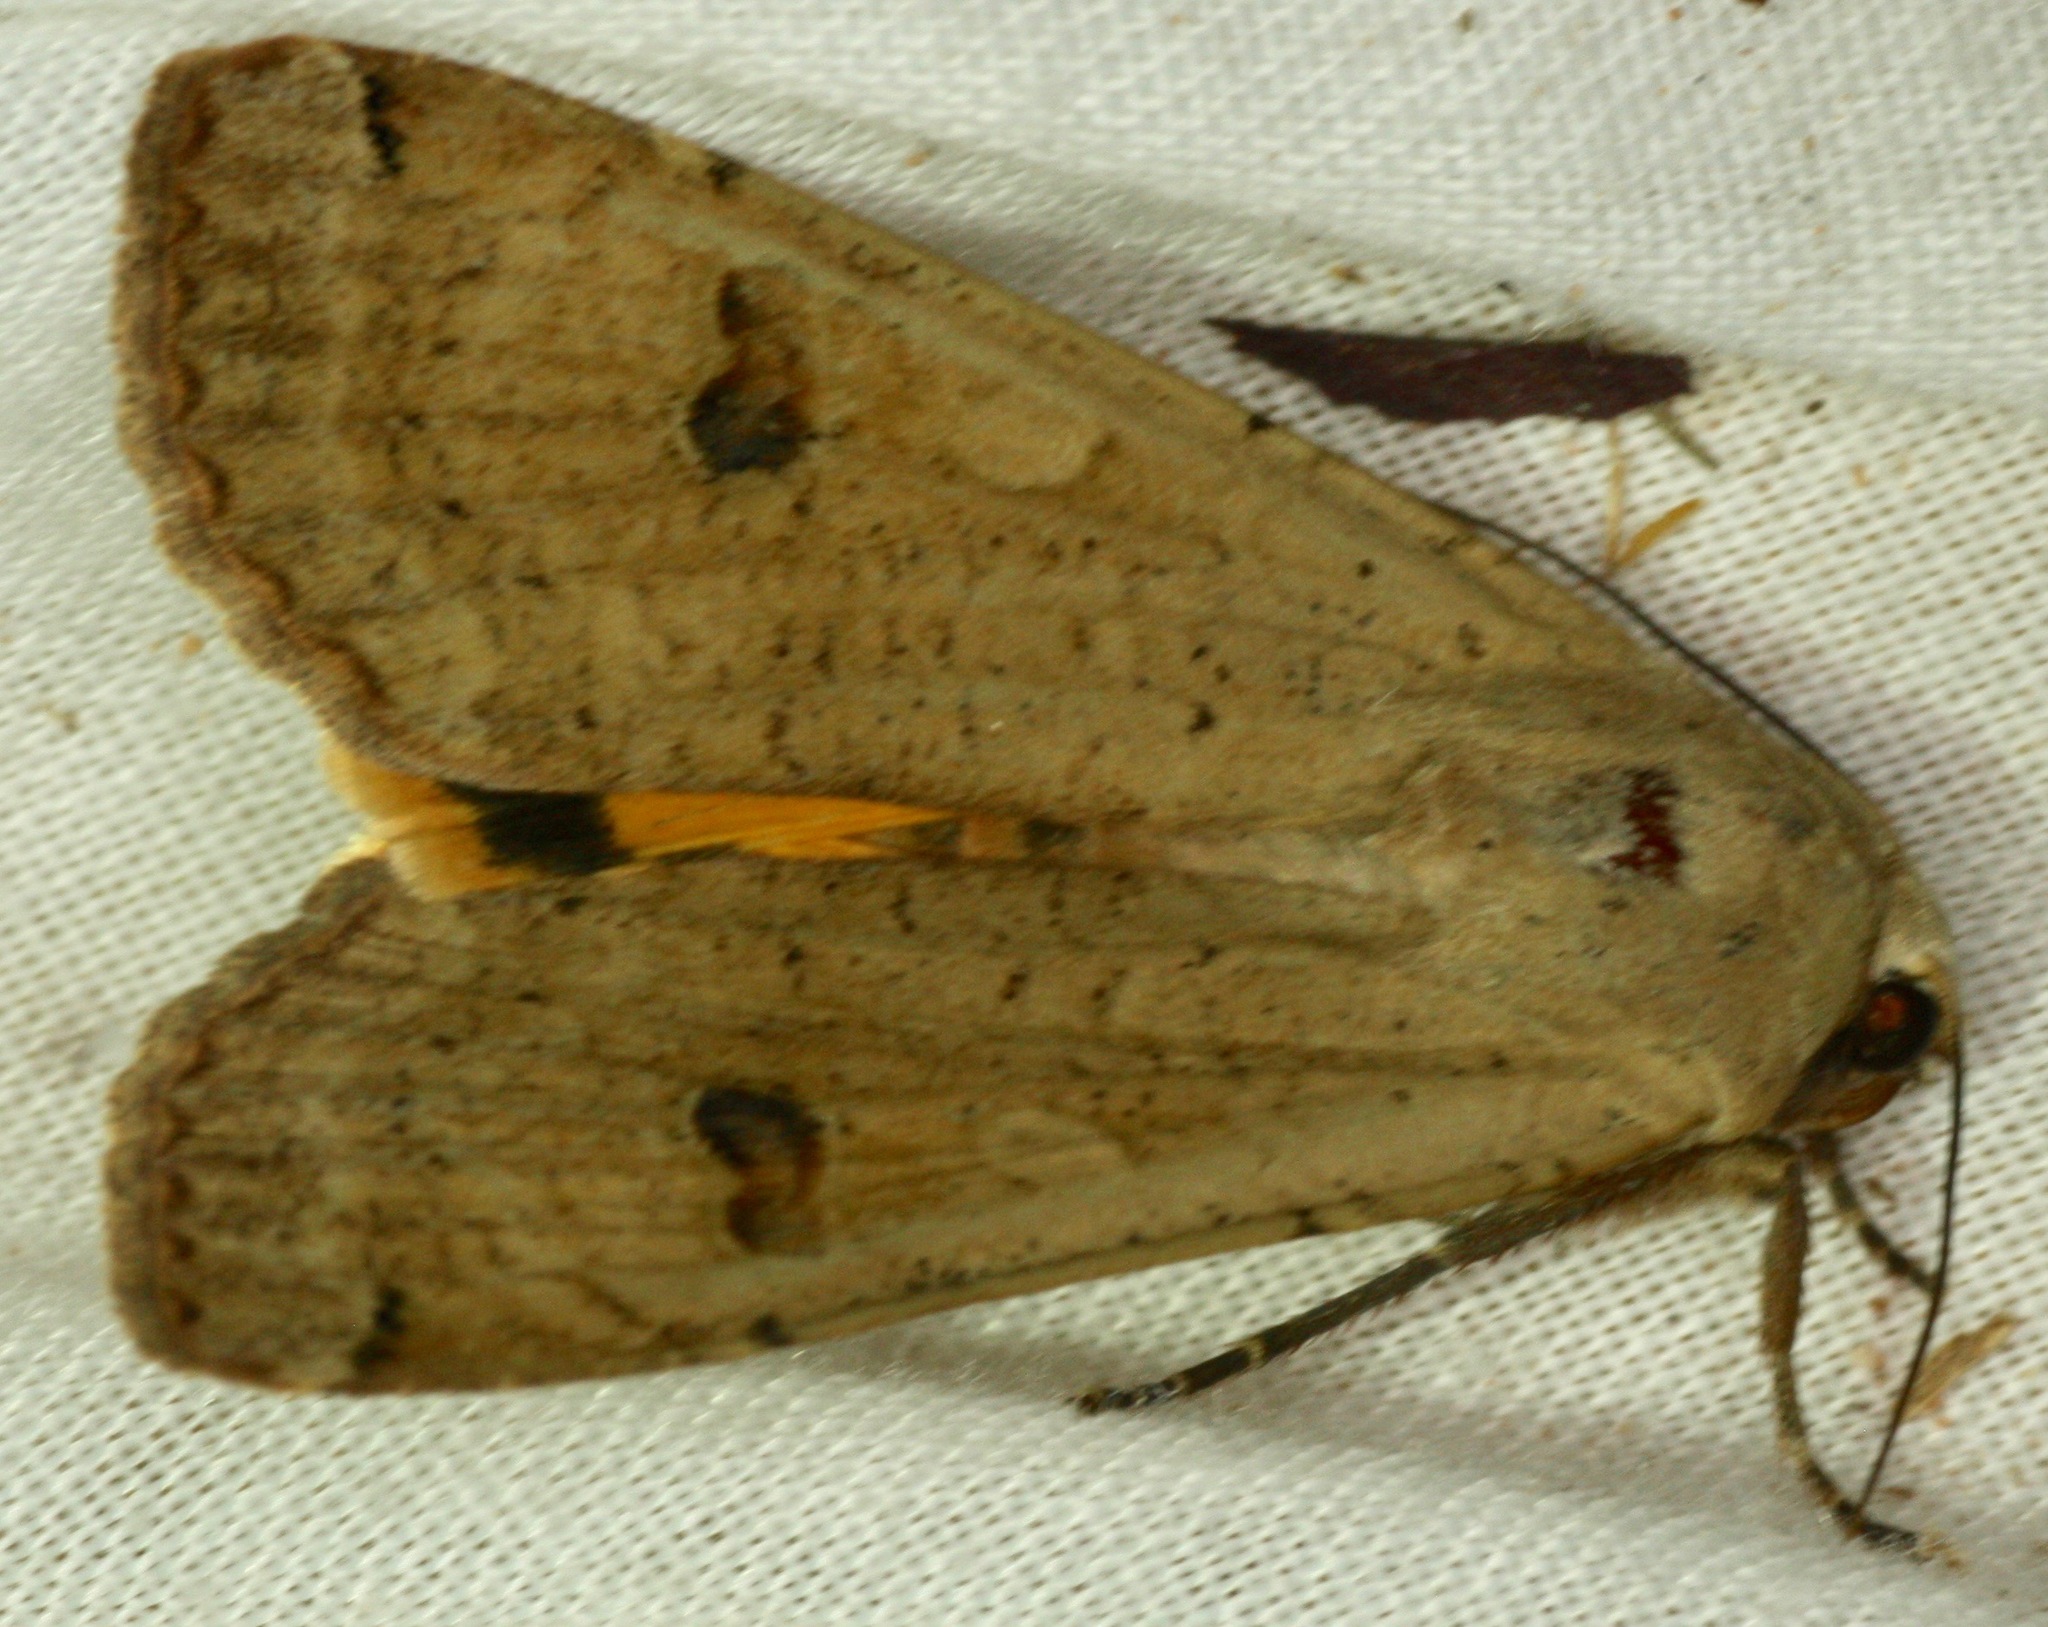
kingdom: Animalia
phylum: Arthropoda
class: Insecta
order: Lepidoptera
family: Noctuidae
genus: Noctua
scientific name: Noctua pronuba
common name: Large yellow underwing
